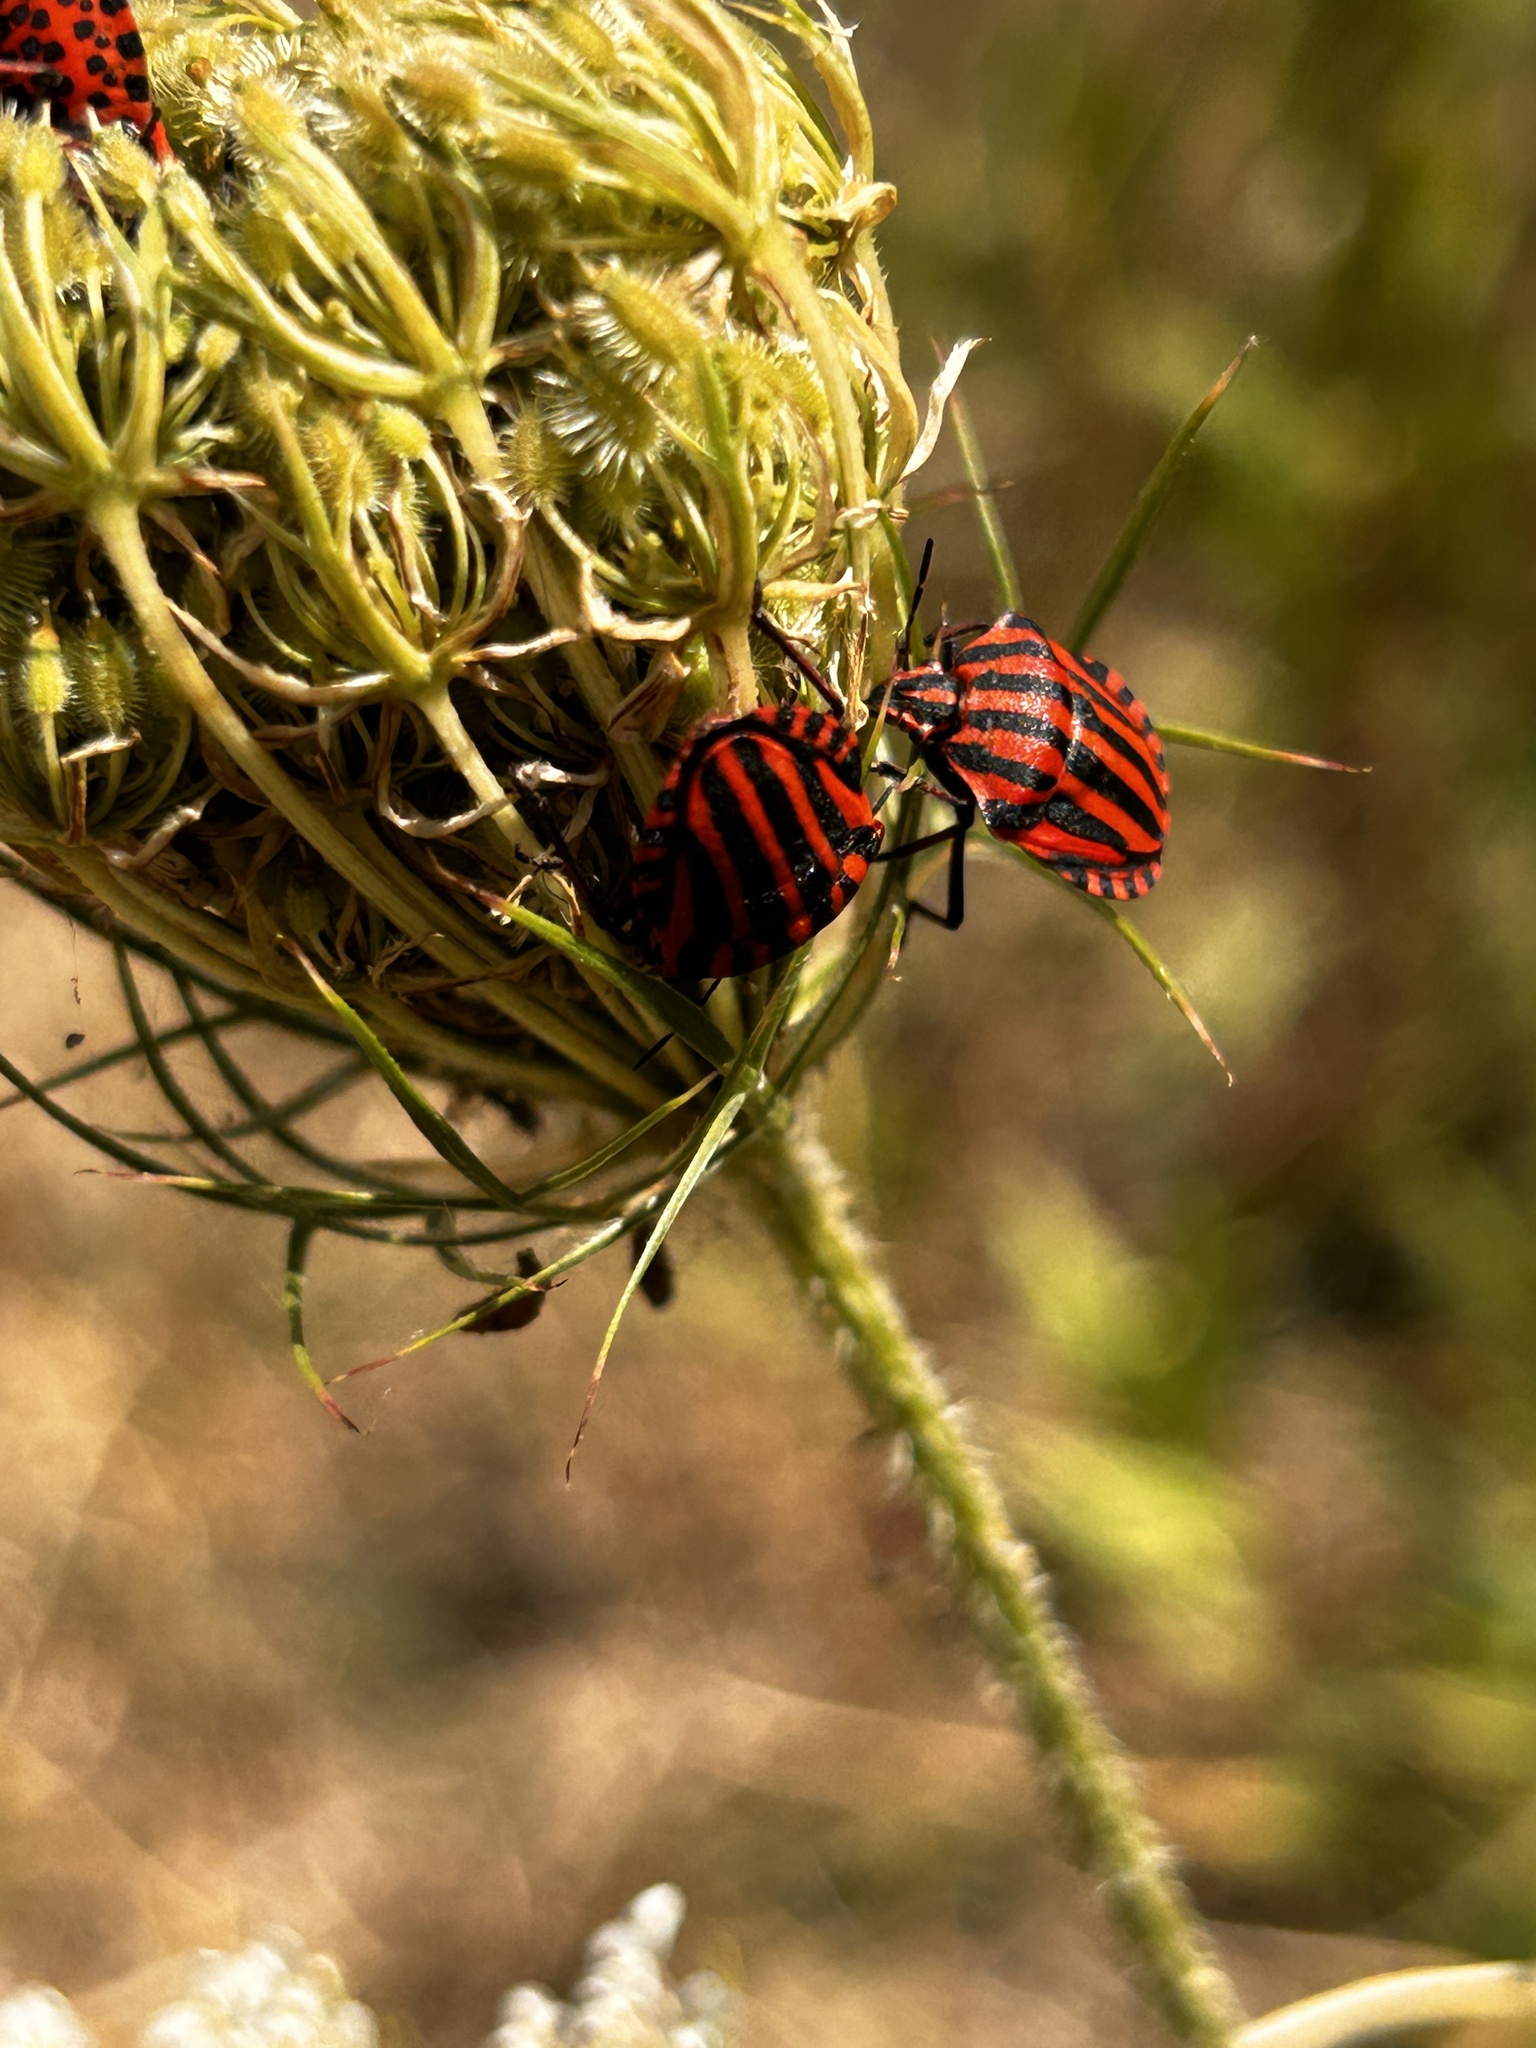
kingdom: Animalia
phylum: Arthropoda
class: Insecta
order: Hemiptera
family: Pentatomidae
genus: Graphosoma
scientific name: Graphosoma italicum
